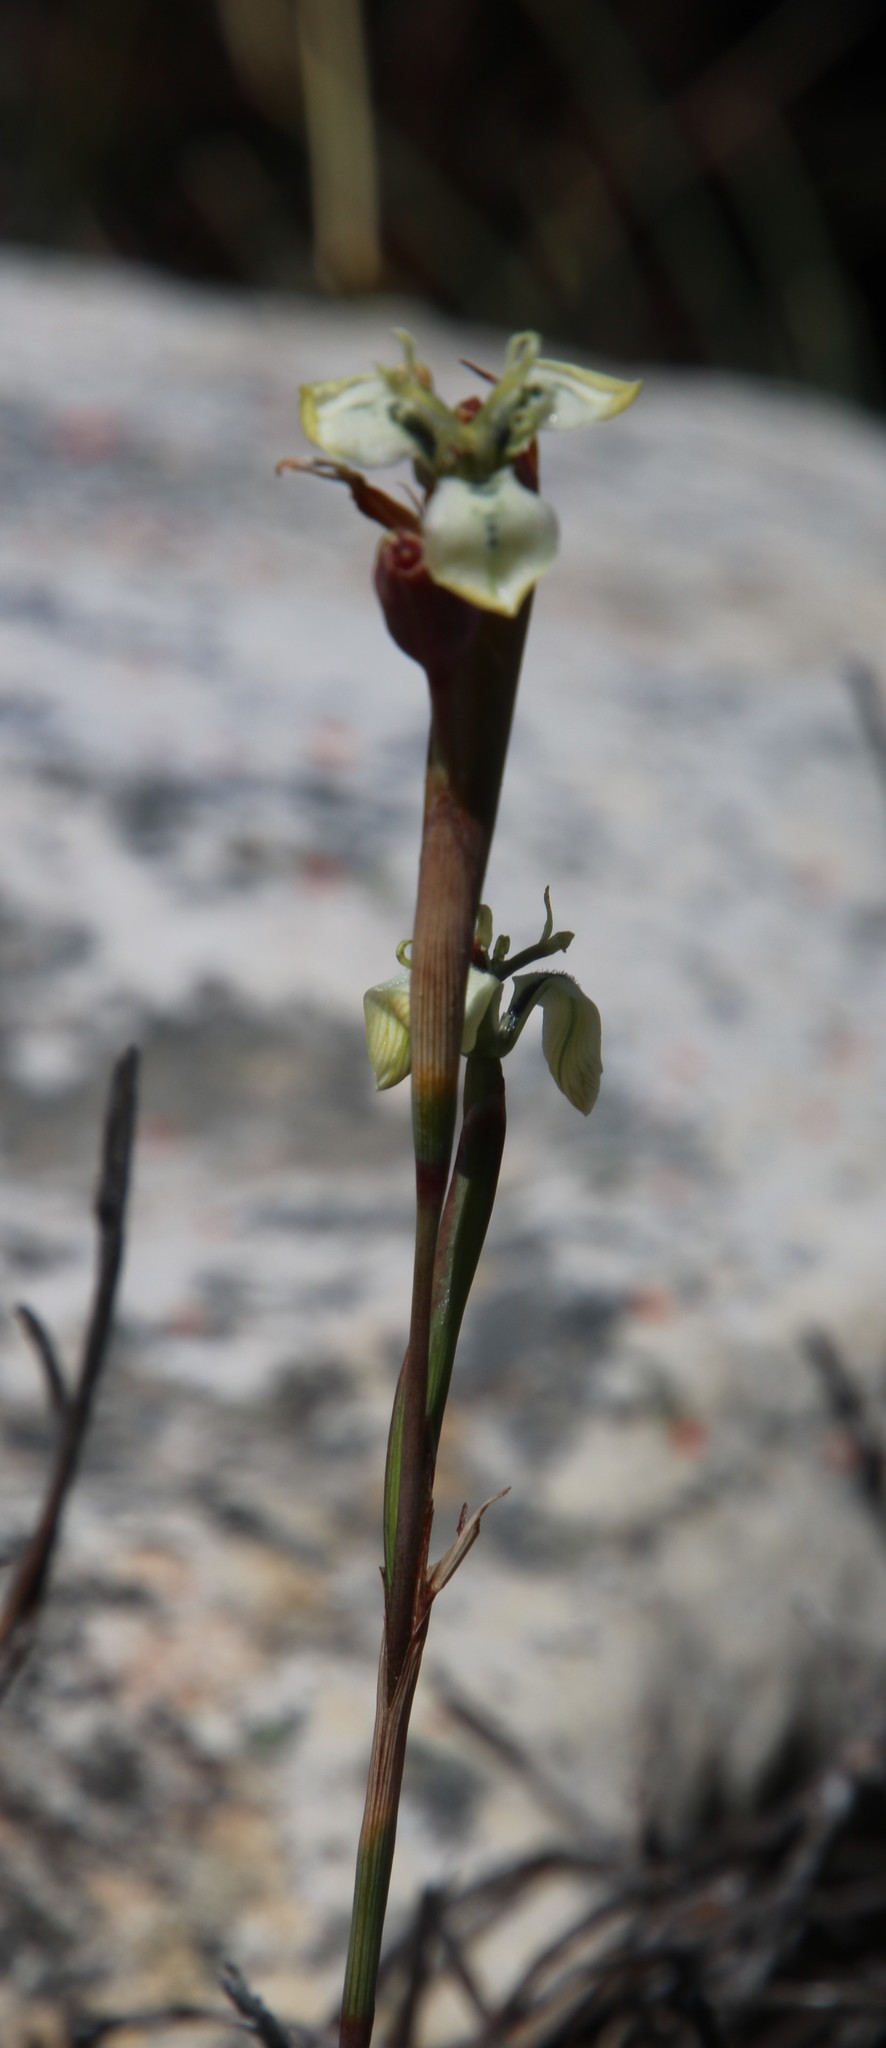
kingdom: Plantae
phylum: Tracheophyta
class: Liliopsida
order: Asparagales
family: Iridaceae
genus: Moraea
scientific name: Moraea unguiculata
